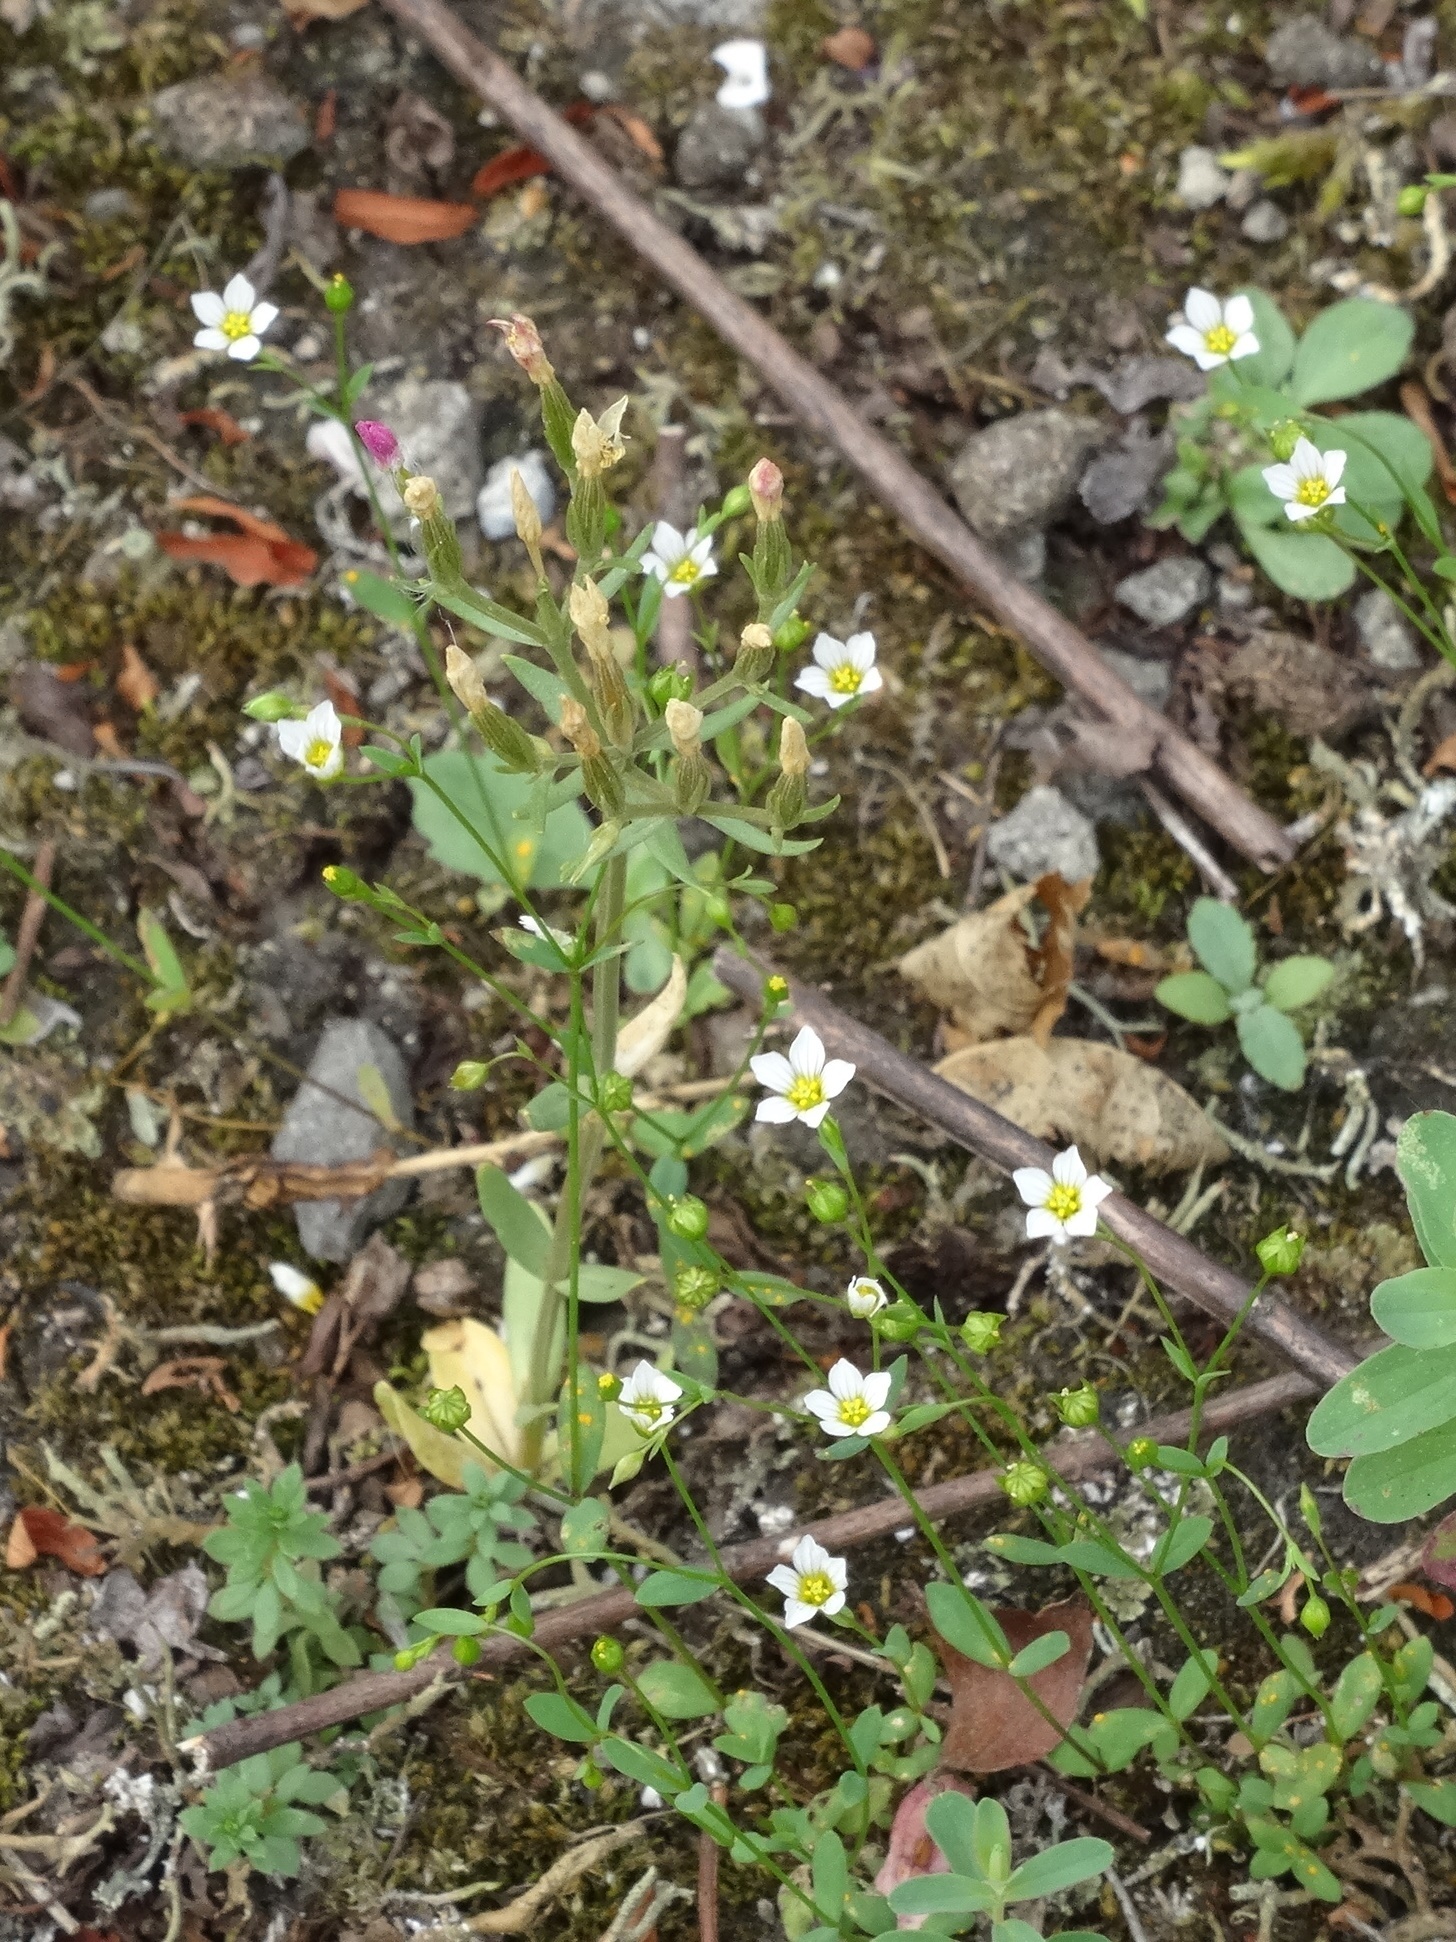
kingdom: Plantae
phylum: Tracheophyta
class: Magnoliopsida
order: Malpighiales
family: Linaceae
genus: Linum
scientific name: Linum catharticum
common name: Fairy flax
